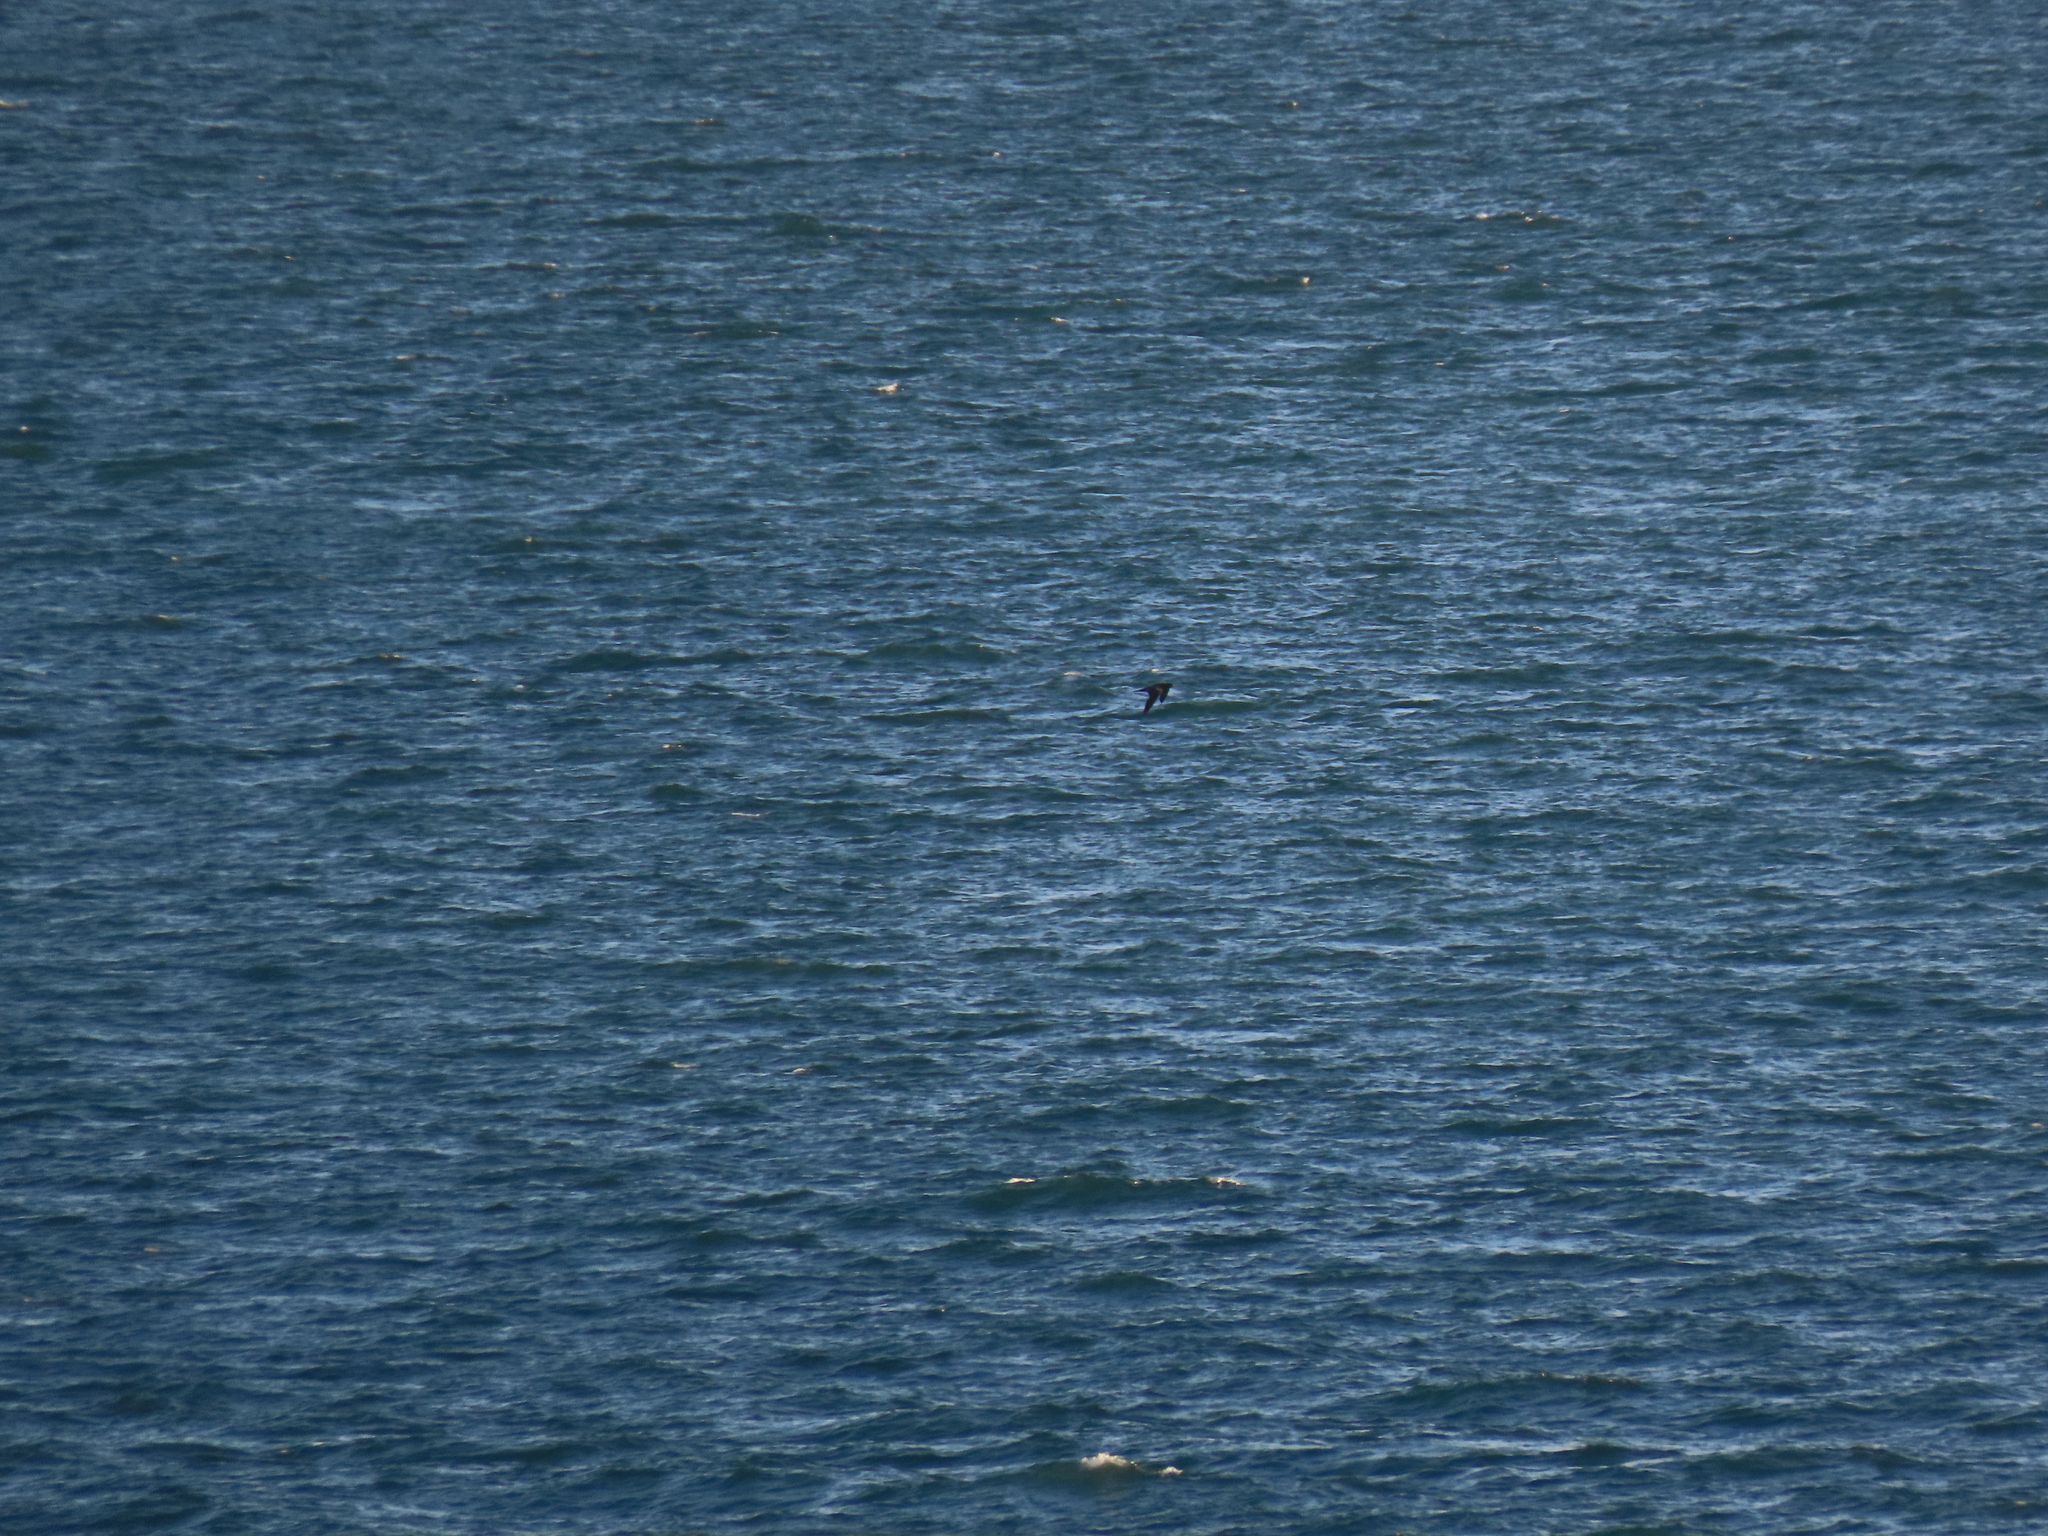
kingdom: Animalia
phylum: Chordata
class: Aves
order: Suliformes
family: Sulidae
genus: Sula
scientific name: Sula leucogaster
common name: Brown booby
